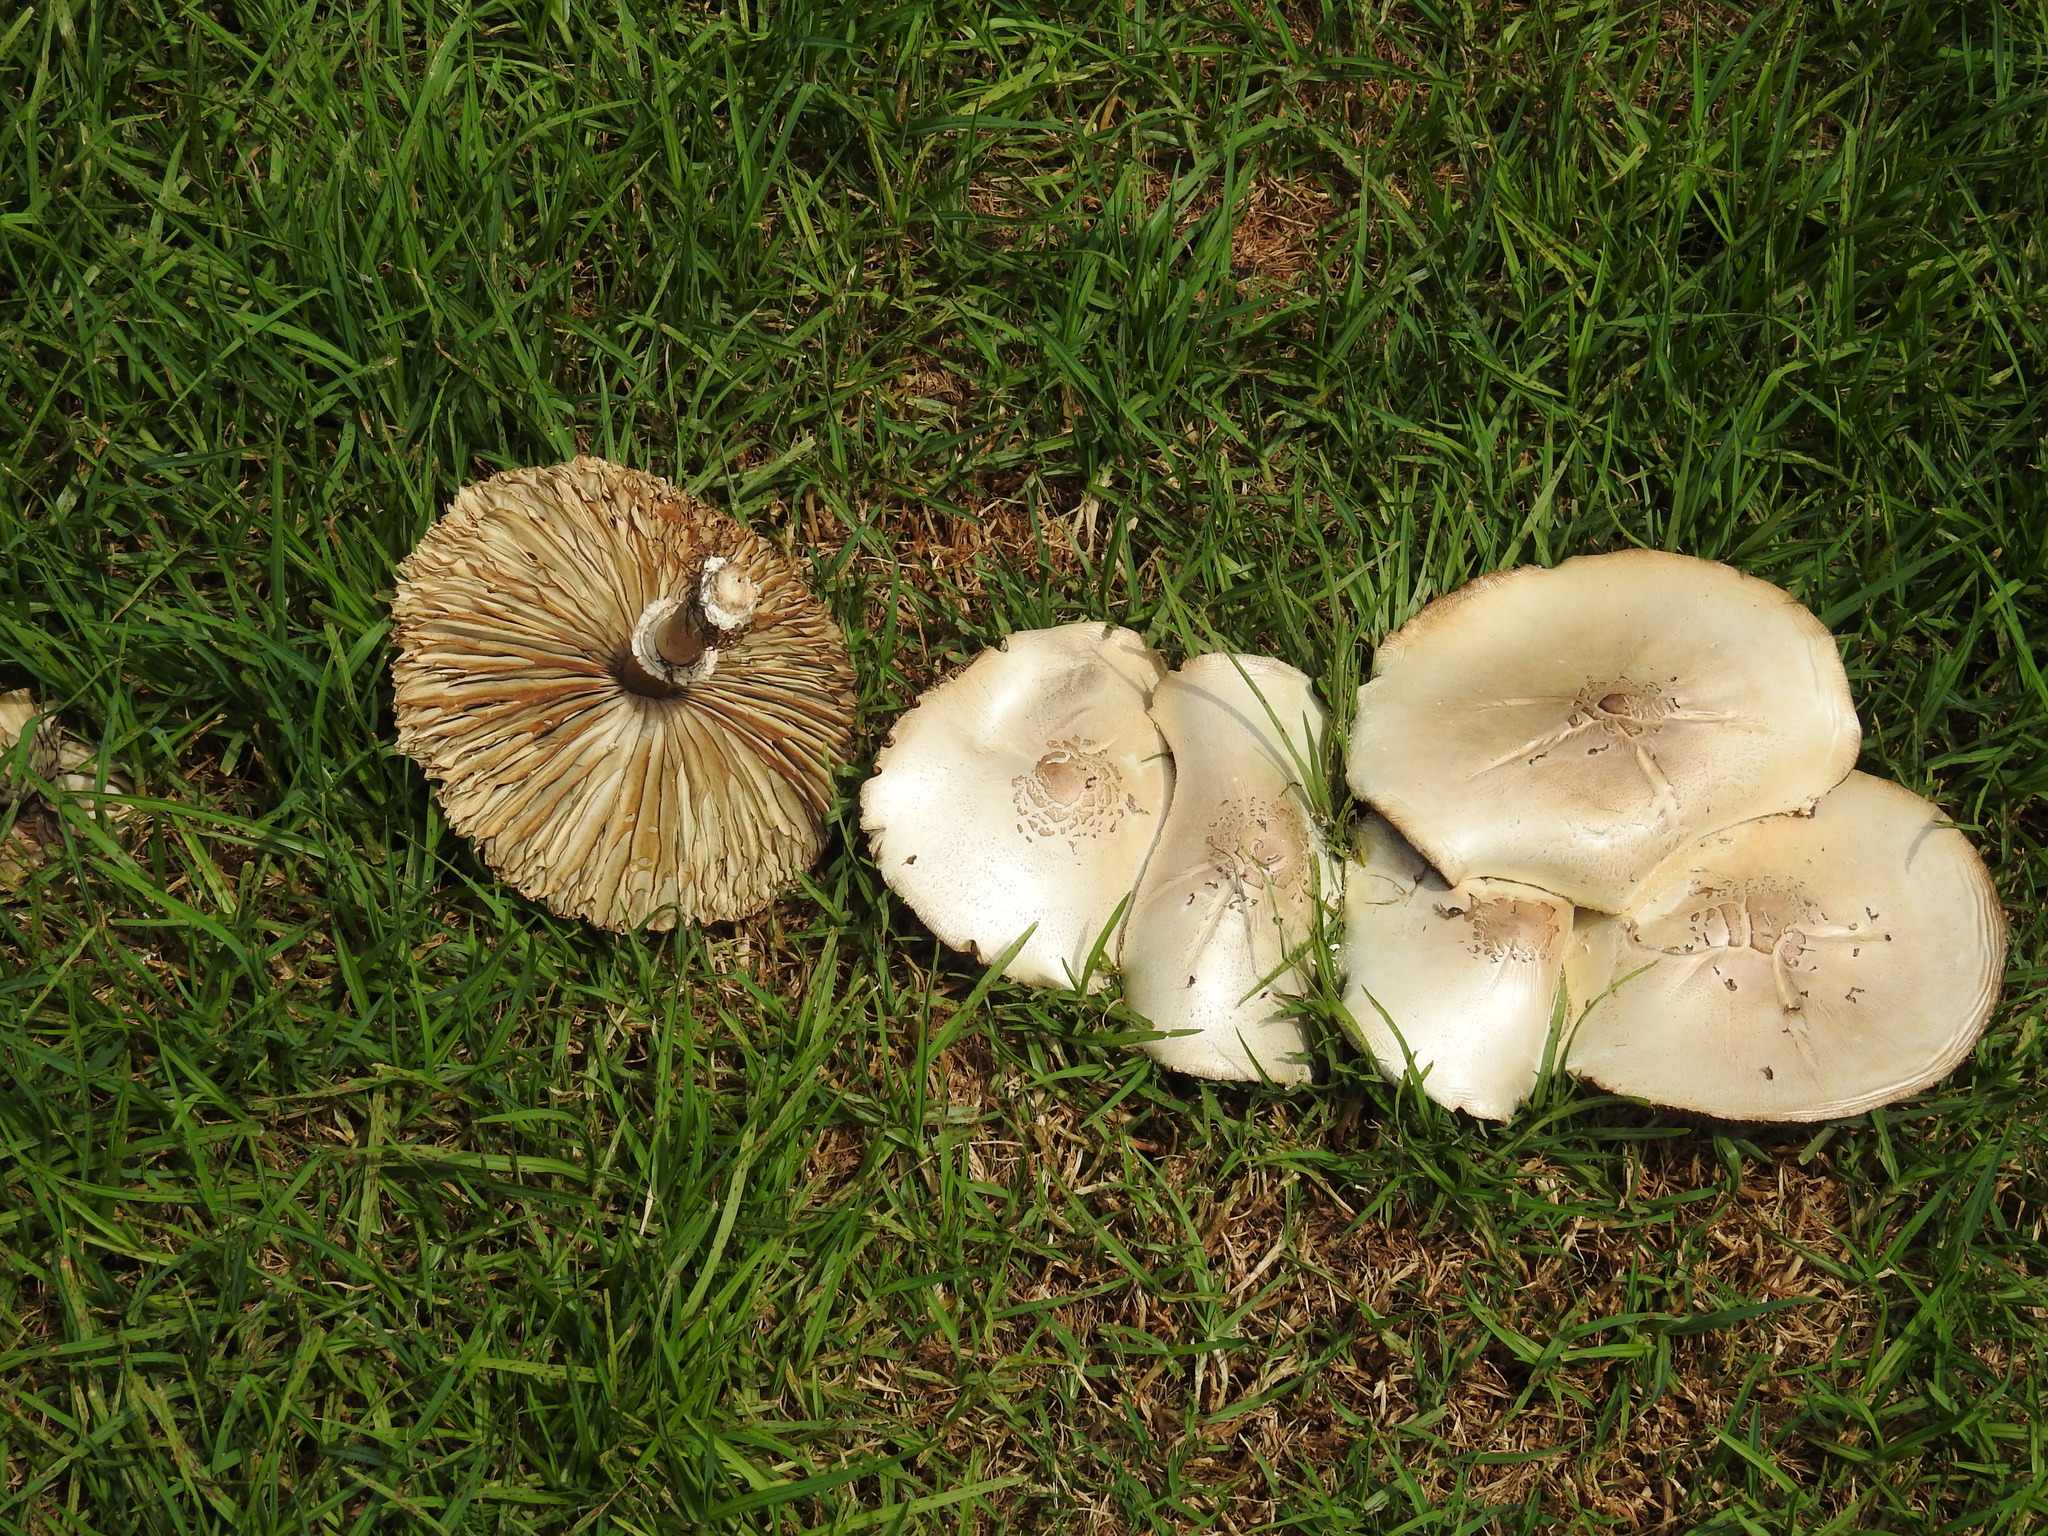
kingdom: Fungi
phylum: Basidiomycota
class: Agaricomycetes
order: Agaricales
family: Agaricaceae
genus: Chlorophyllum
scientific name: Chlorophyllum molybdites
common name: False parasol
